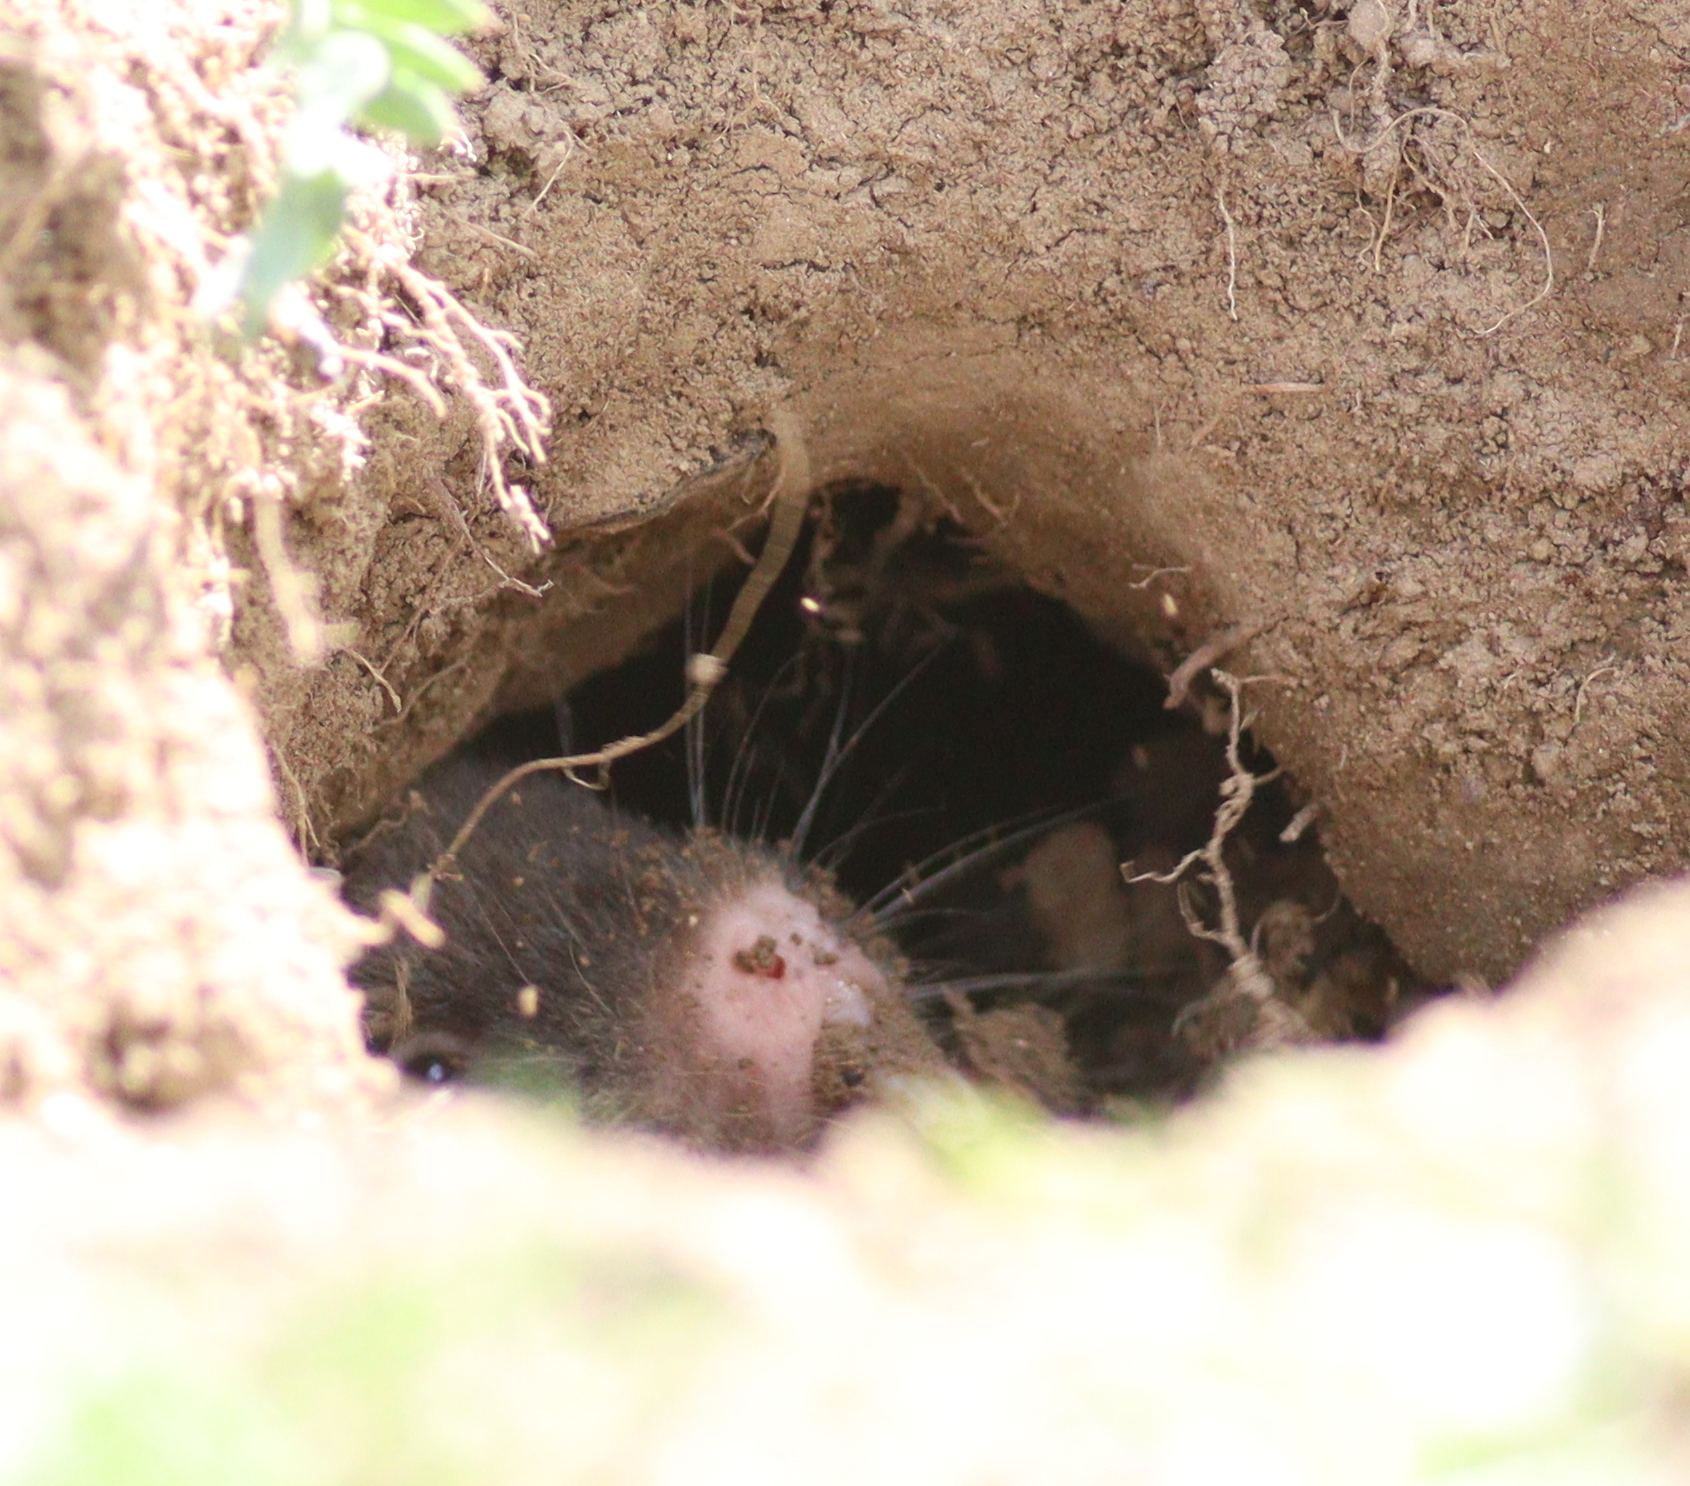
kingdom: Animalia
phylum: Chordata
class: Mammalia
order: Rodentia
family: Cricetidae
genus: Bramus
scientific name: Bramus
